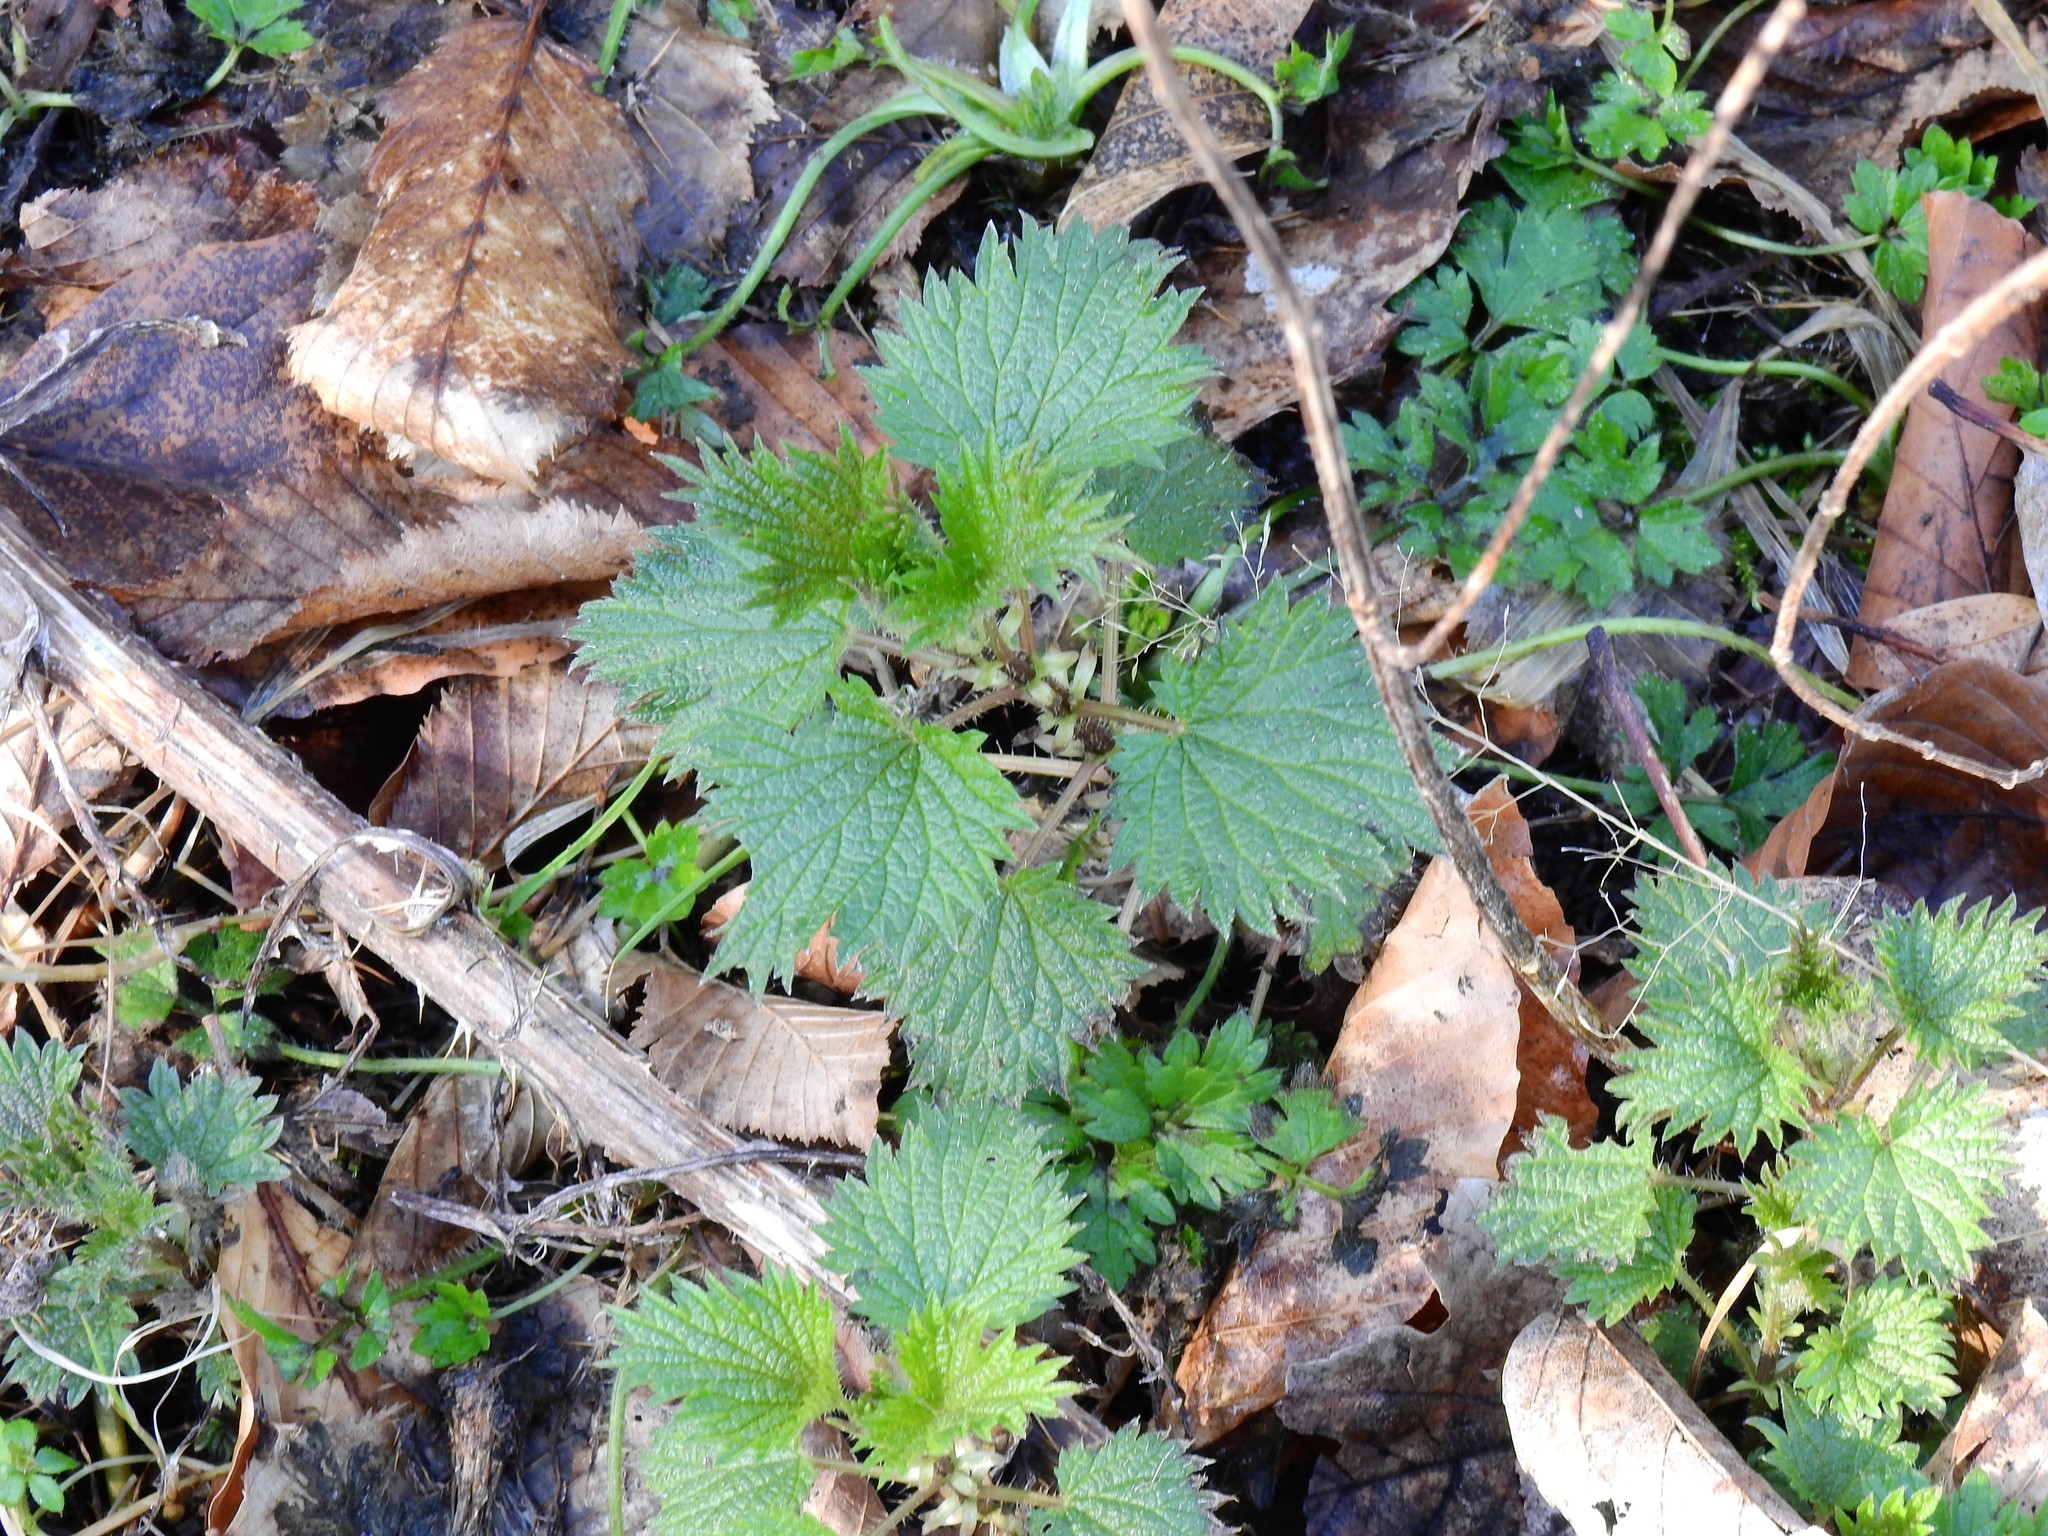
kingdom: Plantae
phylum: Tracheophyta
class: Magnoliopsida
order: Rosales
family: Urticaceae
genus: Urtica
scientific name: Urtica dioica
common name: Common nettle
